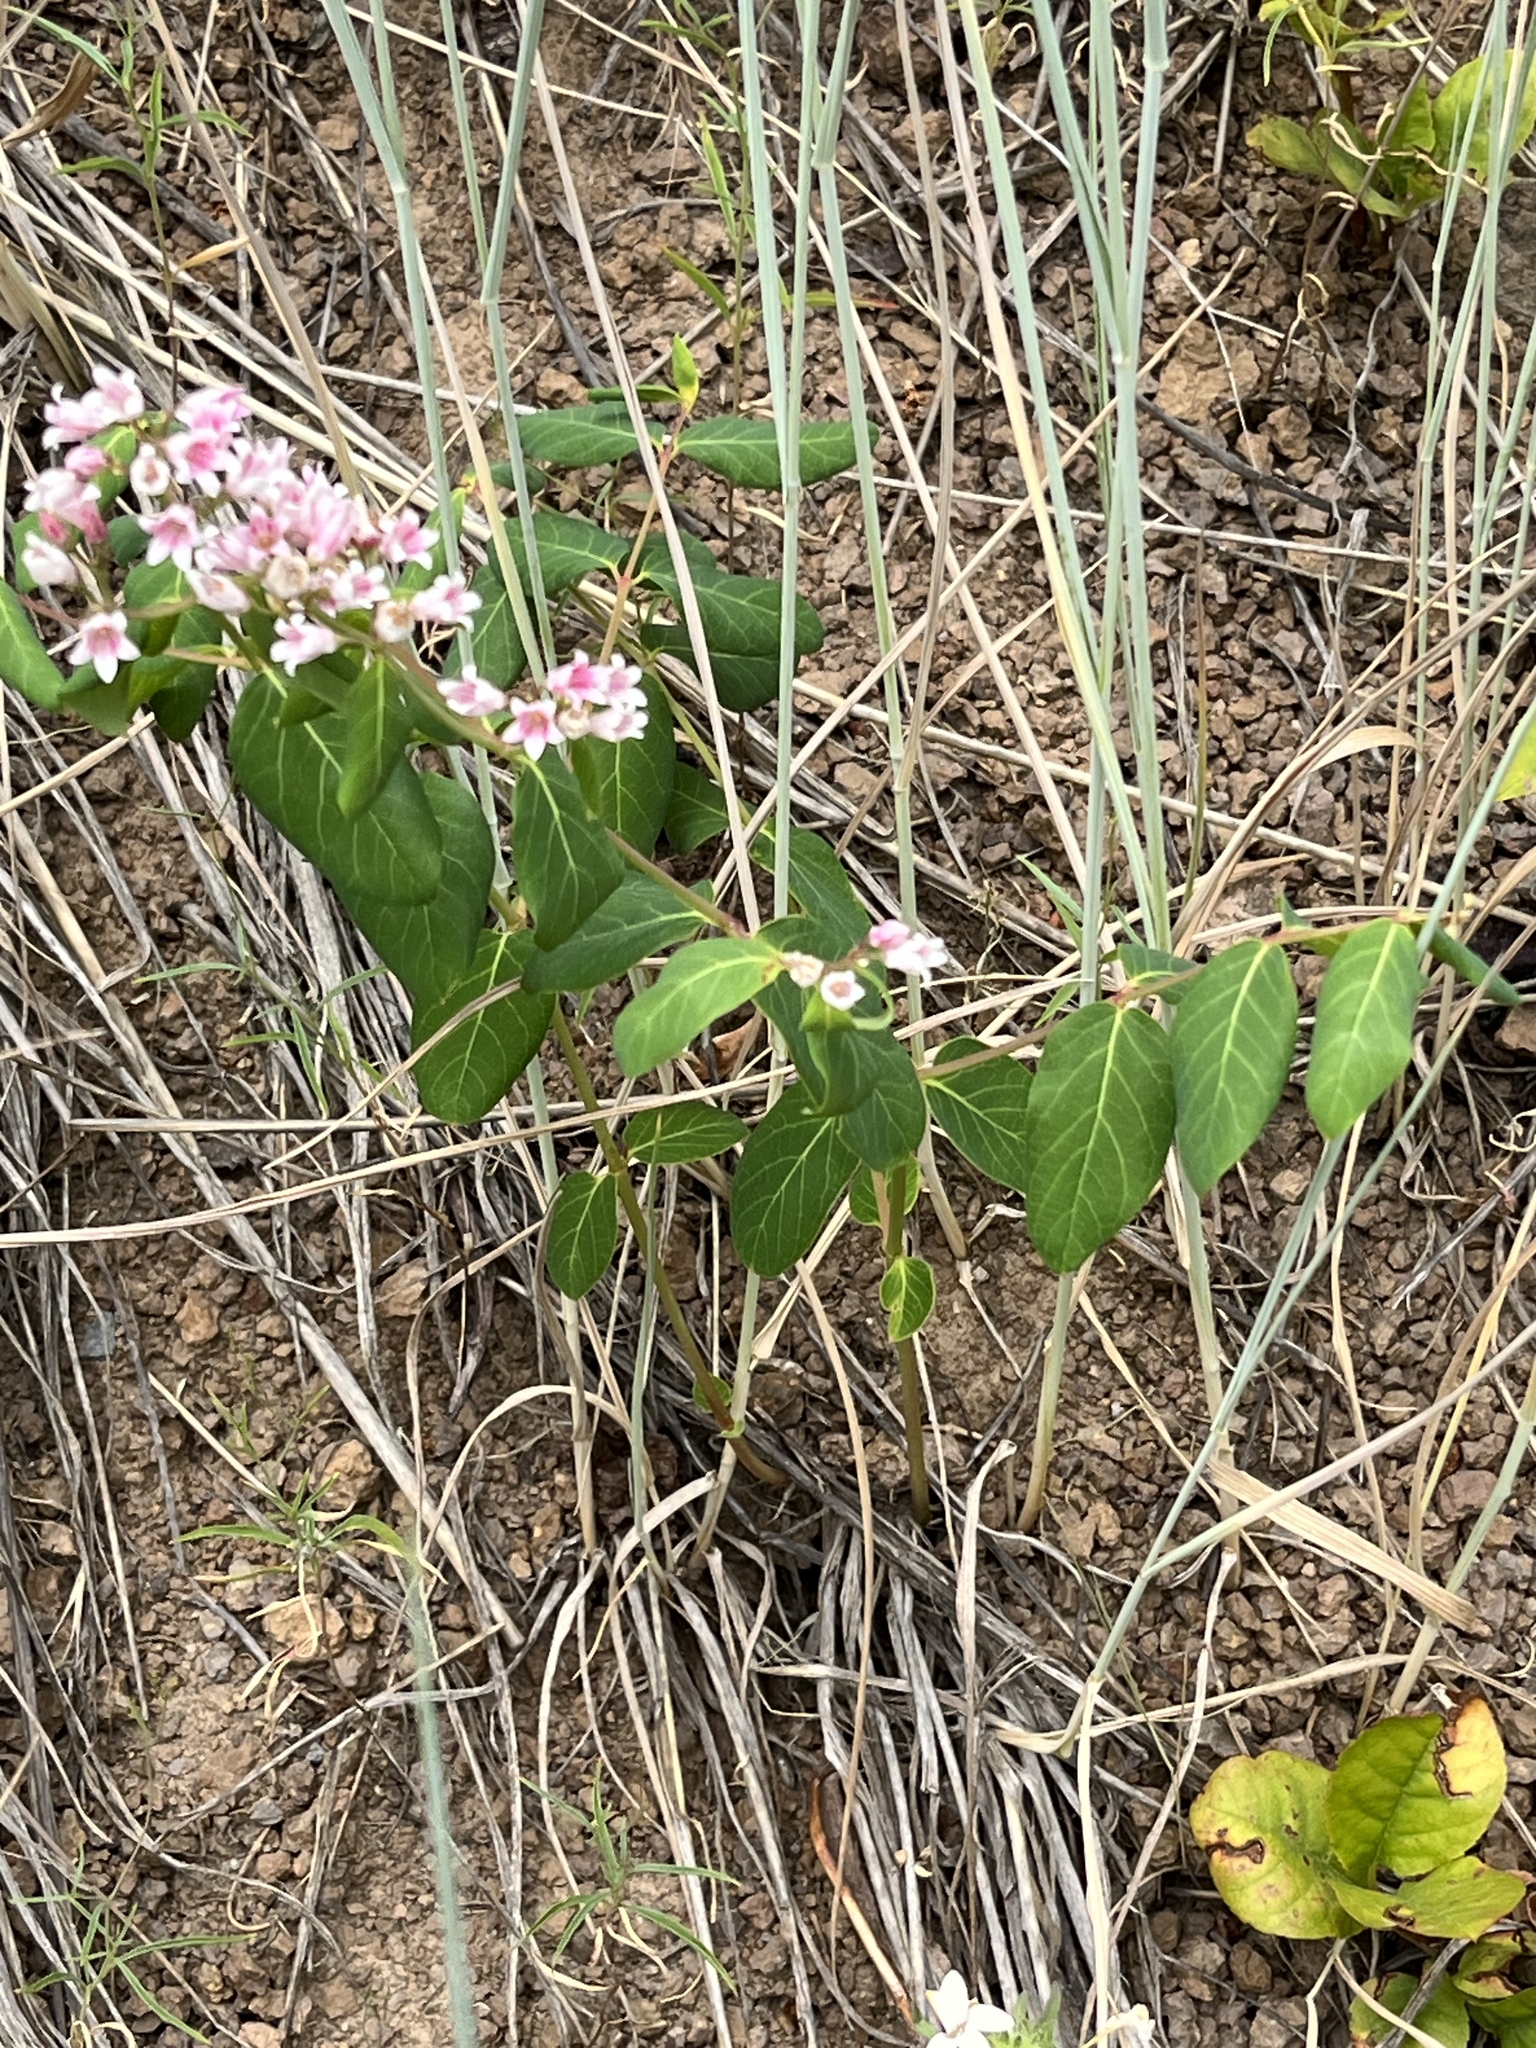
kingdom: Plantae
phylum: Tracheophyta
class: Magnoliopsida
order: Gentianales
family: Apocynaceae
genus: Apocynum
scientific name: Apocynum androsaemifolium
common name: Spreading dogbane
